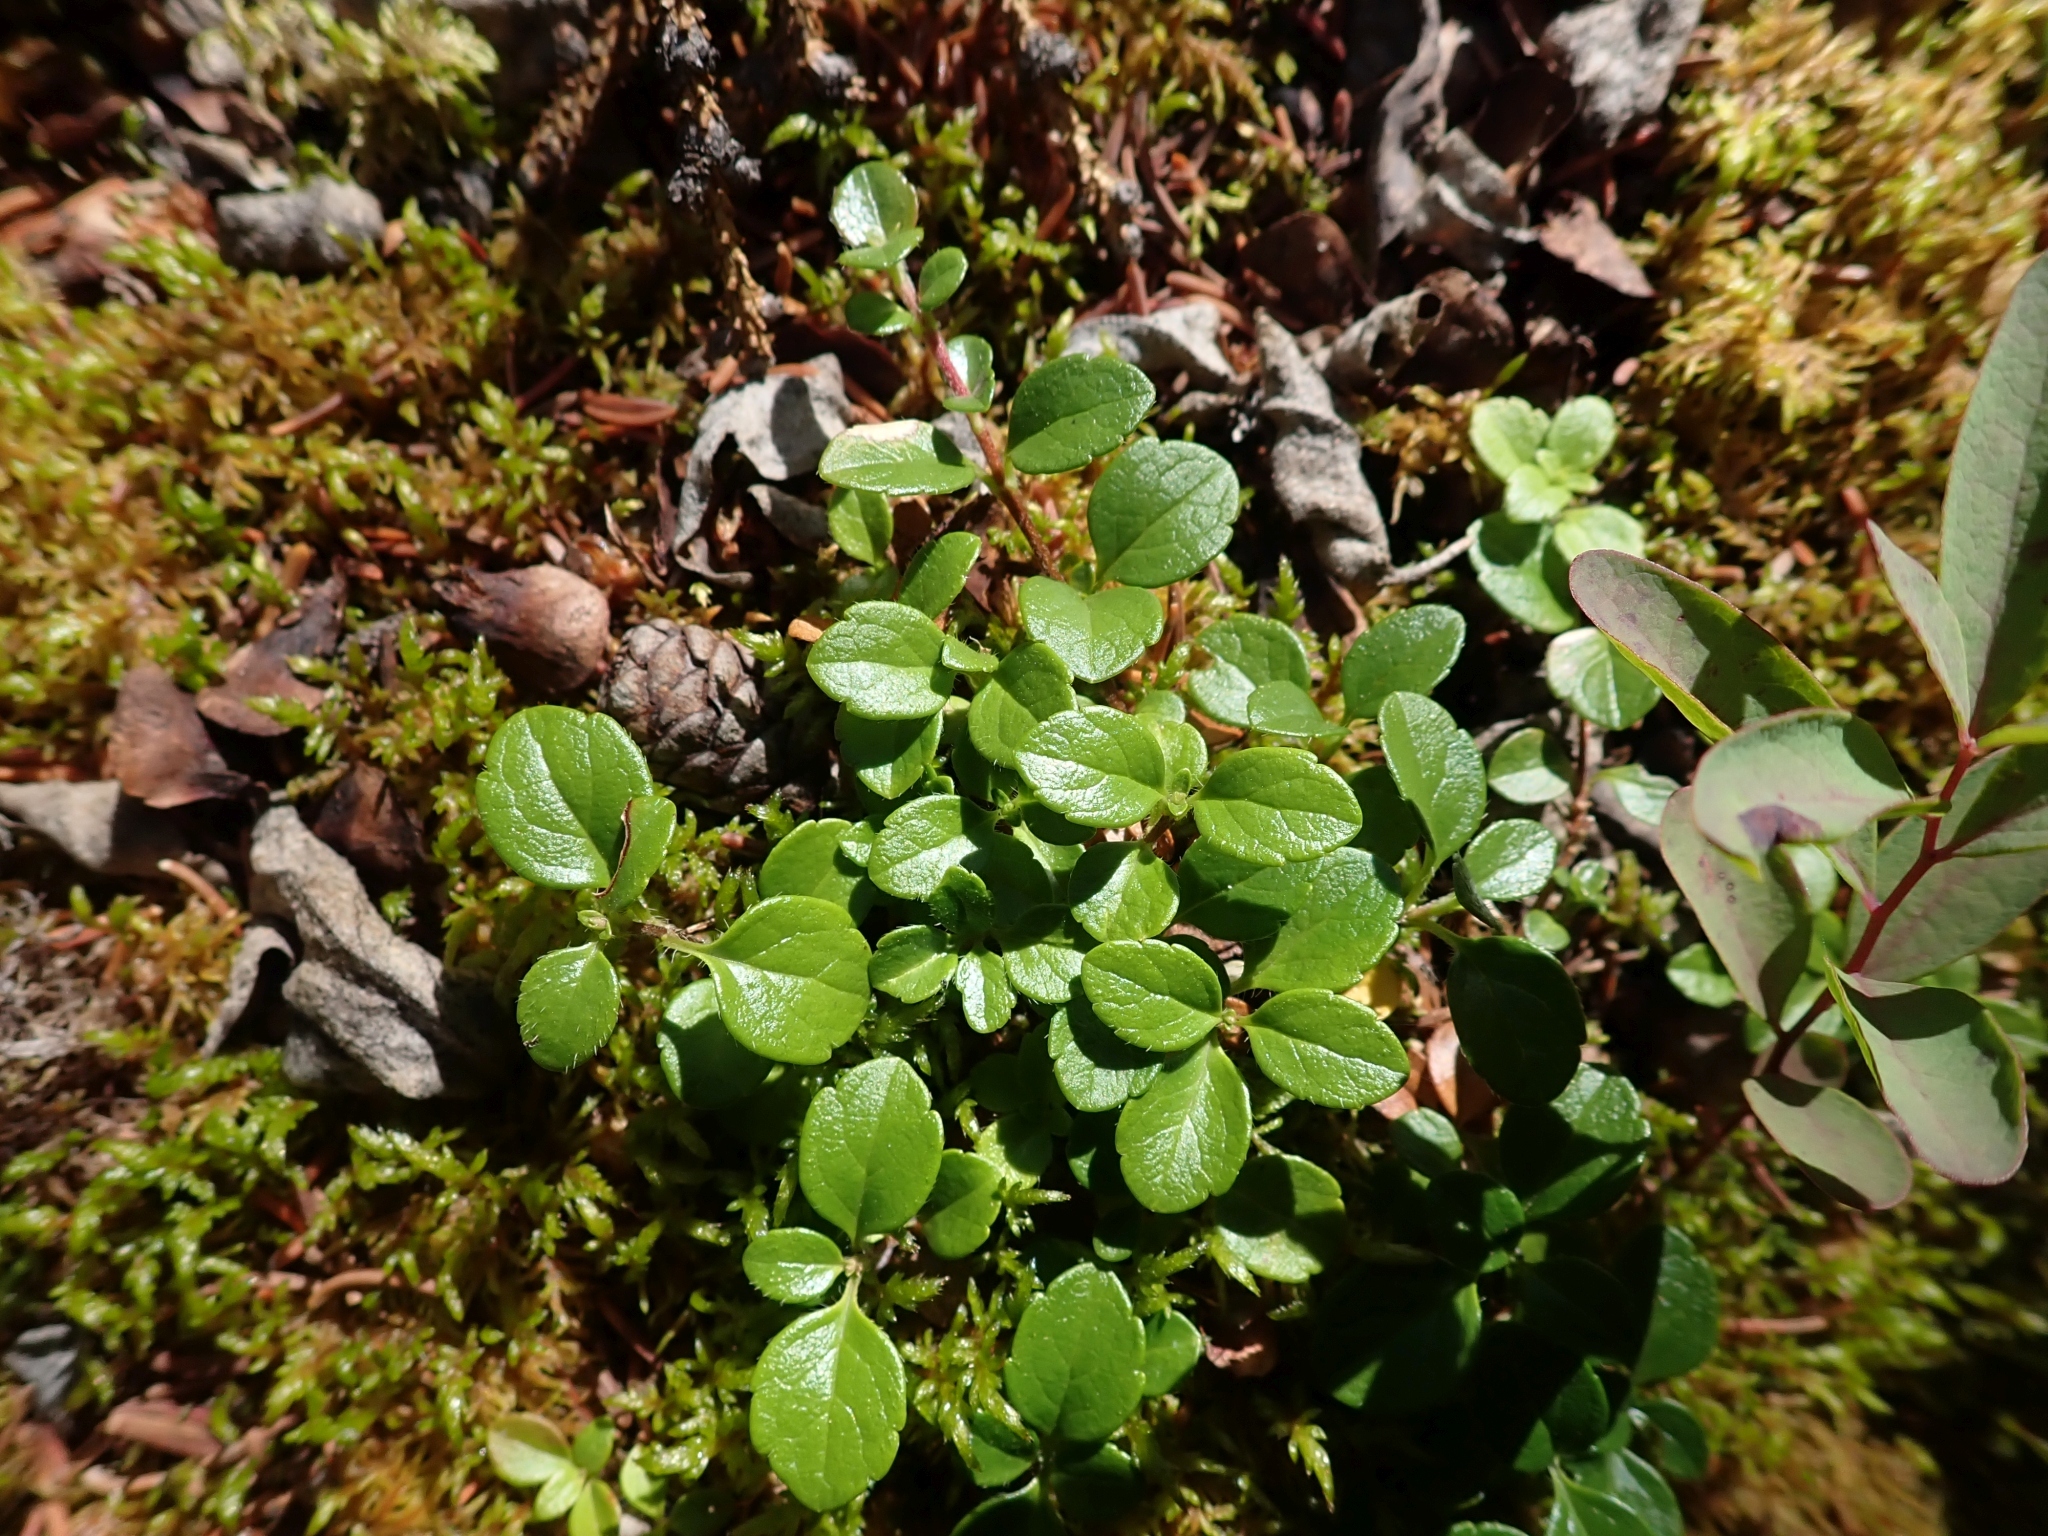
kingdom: Plantae
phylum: Tracheophyta
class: Magnoliopsida
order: Dipsacales
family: Caprifoliaceae
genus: Linnaea
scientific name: Linnaea borealis
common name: Twinflower
